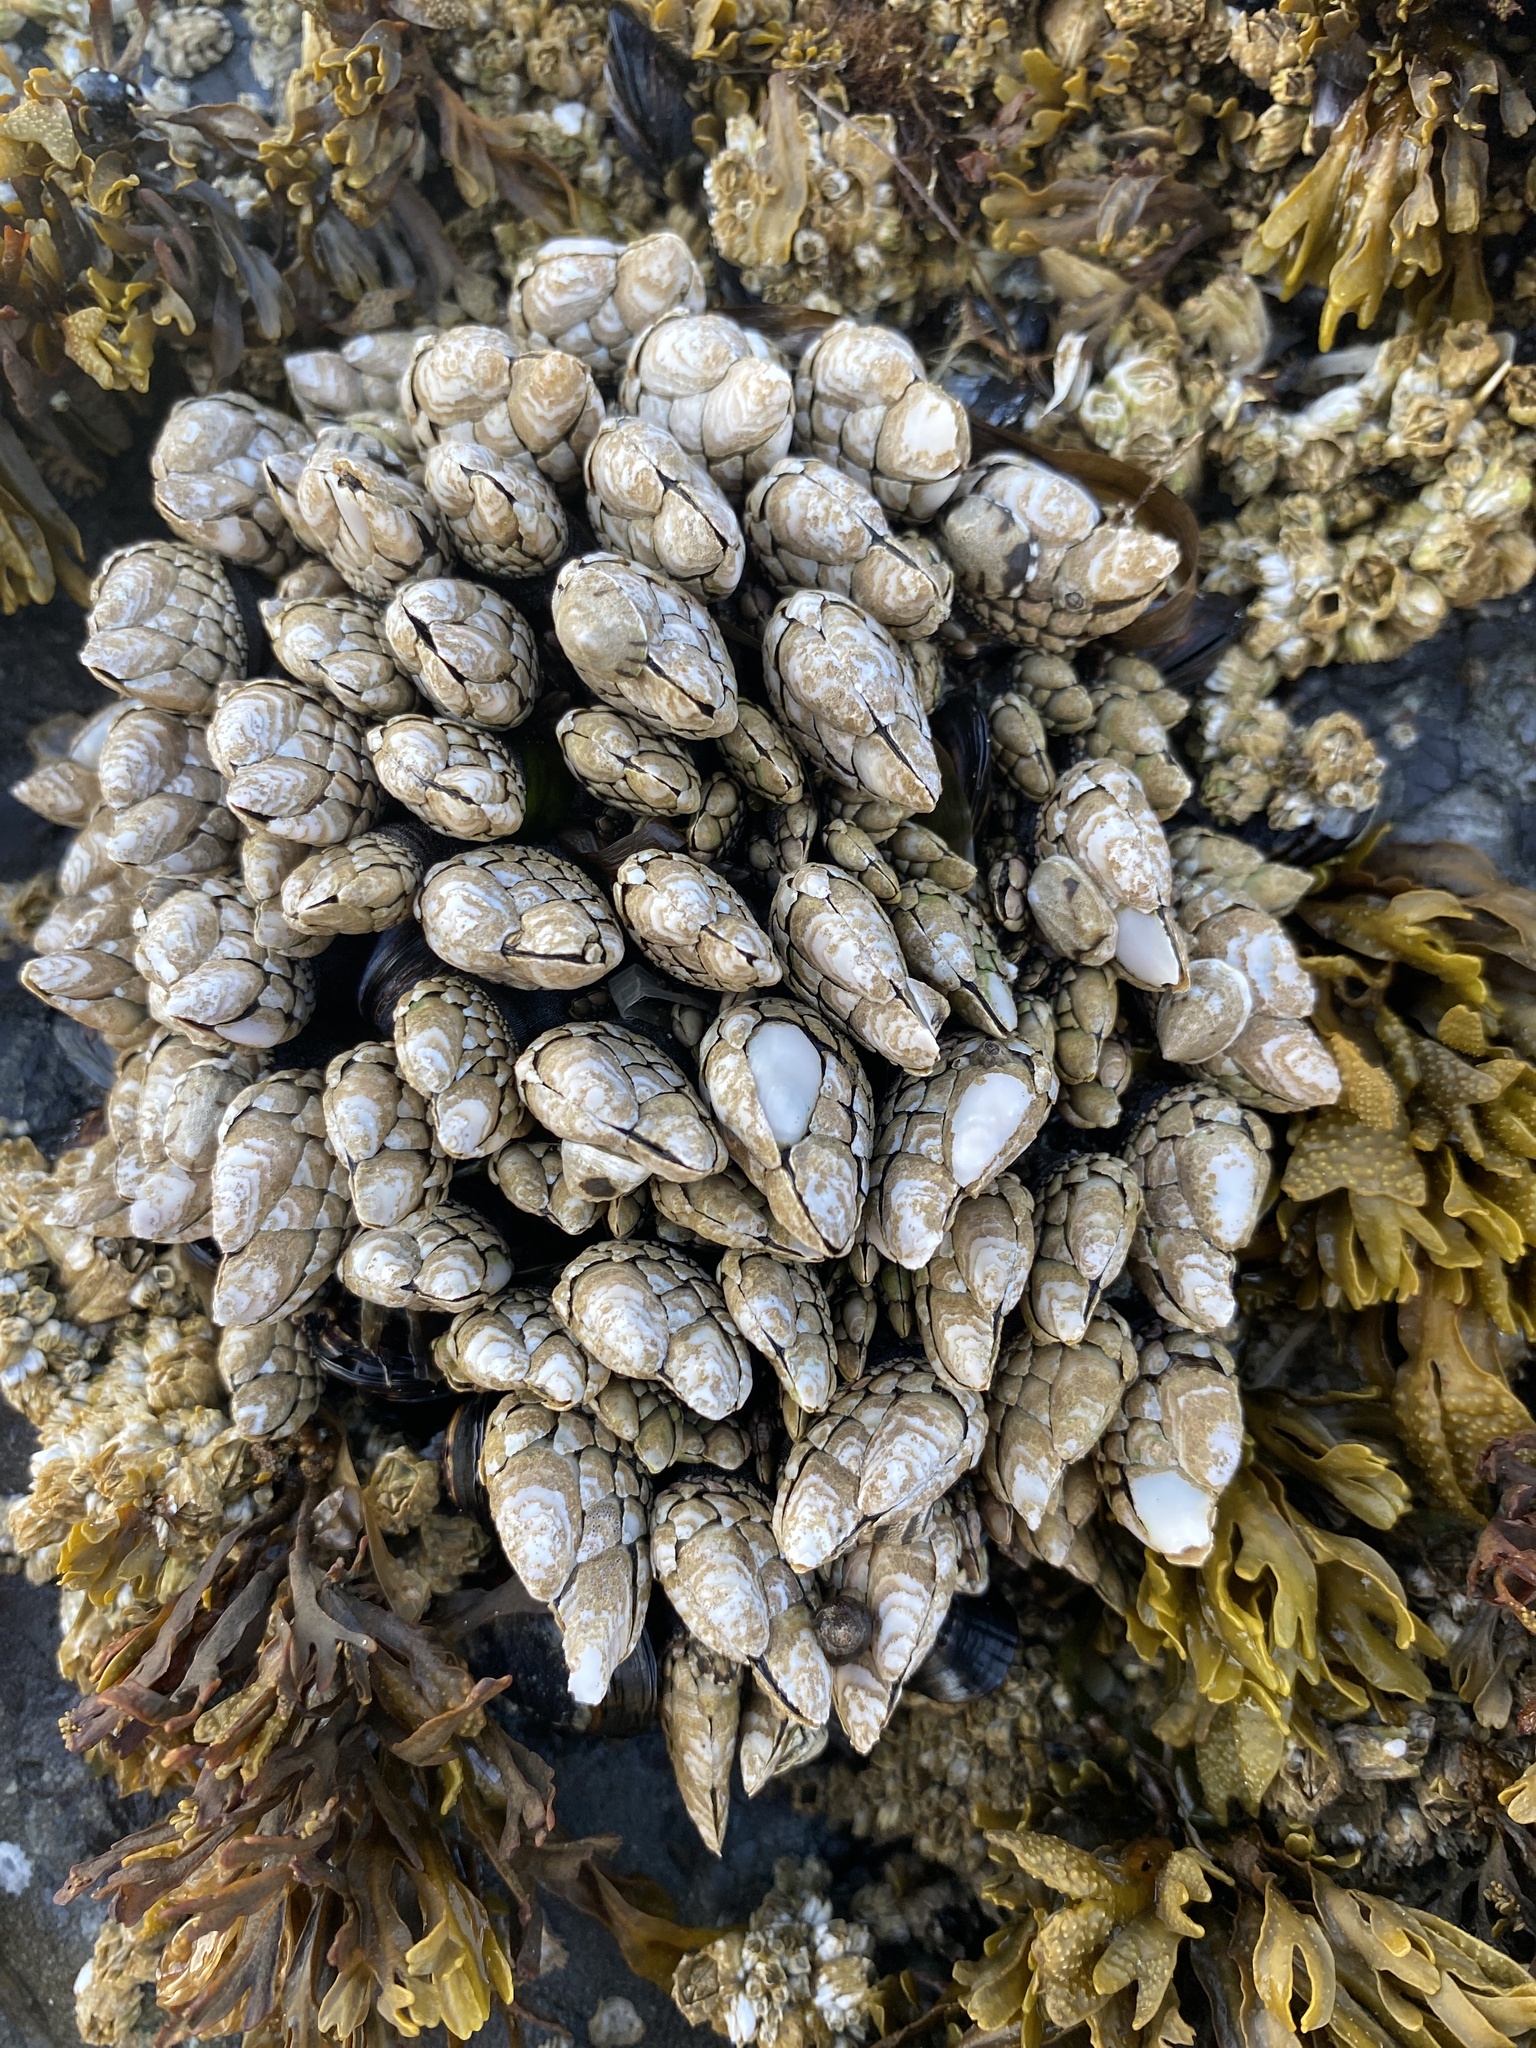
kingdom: Animalia
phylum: Arthropoda
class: Maxillopoda
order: Pedunculata
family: Pollicipedidae
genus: Pollicipes
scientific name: Pollicipes polymerus
